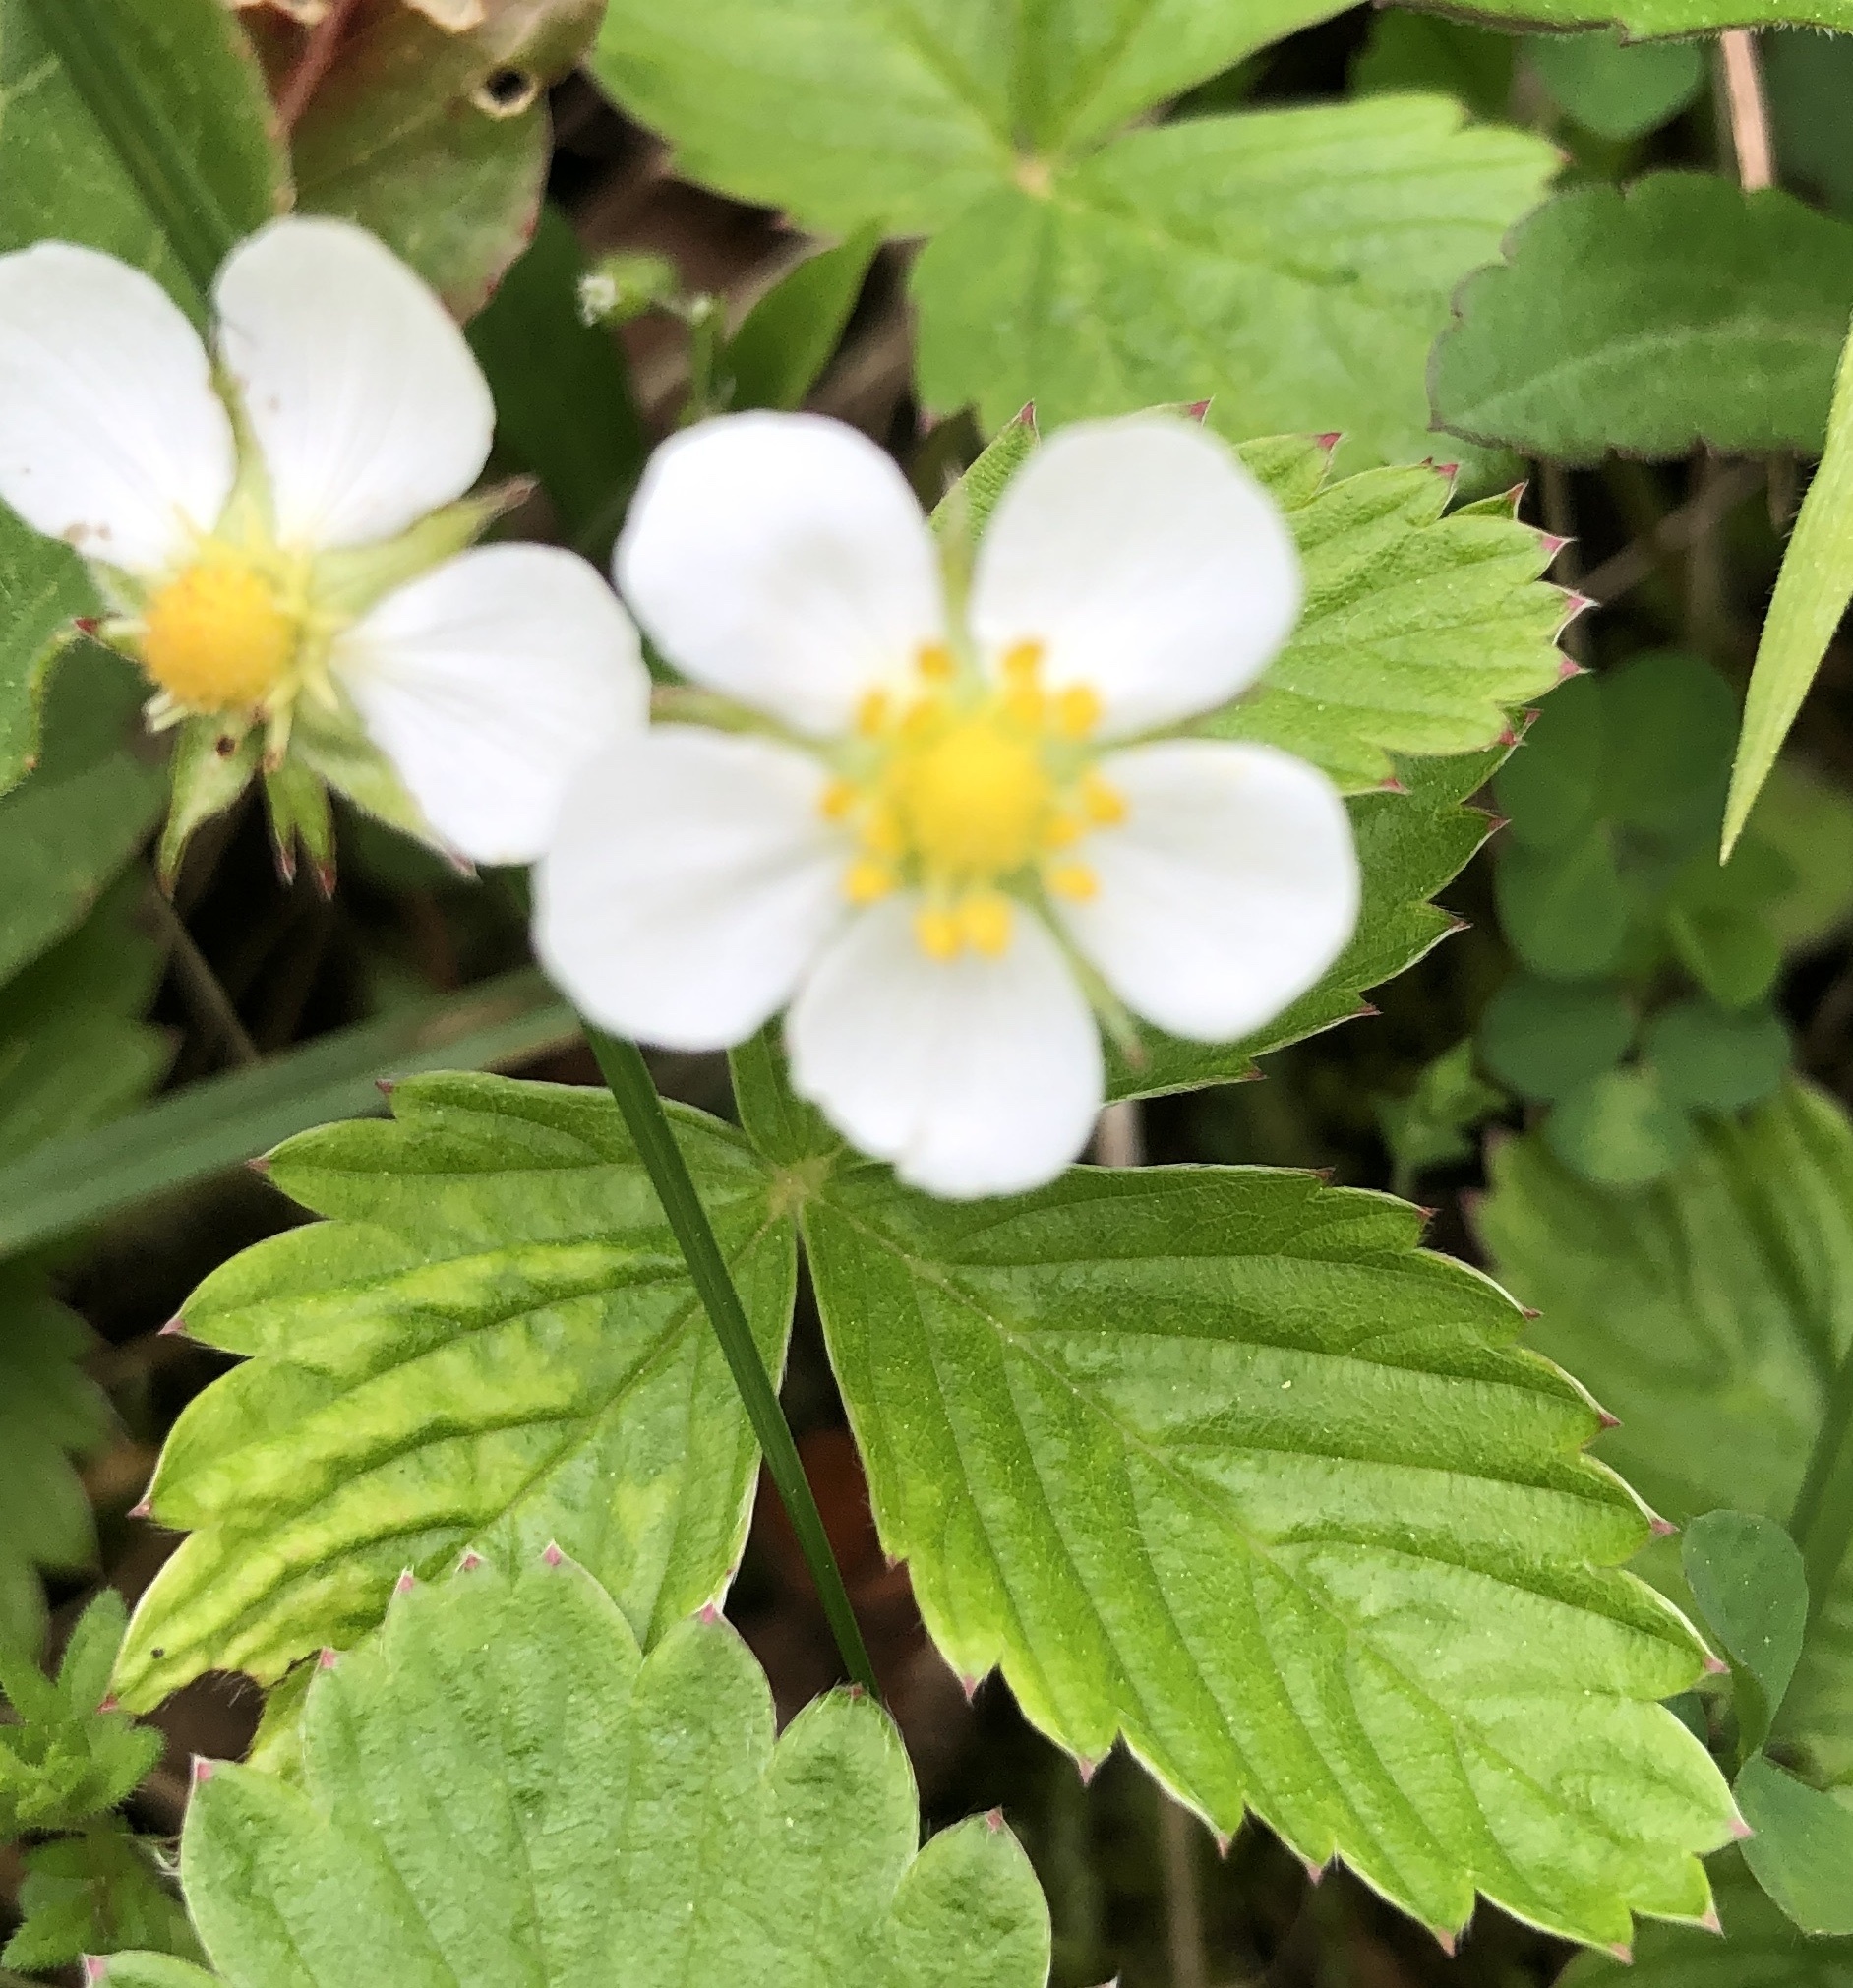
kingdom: Plantae
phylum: Tracheophyta
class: Magnoliopsida
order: Rosales
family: Rosaceae
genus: Fragaria
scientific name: Fragaria vesca
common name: Wild strawberry
